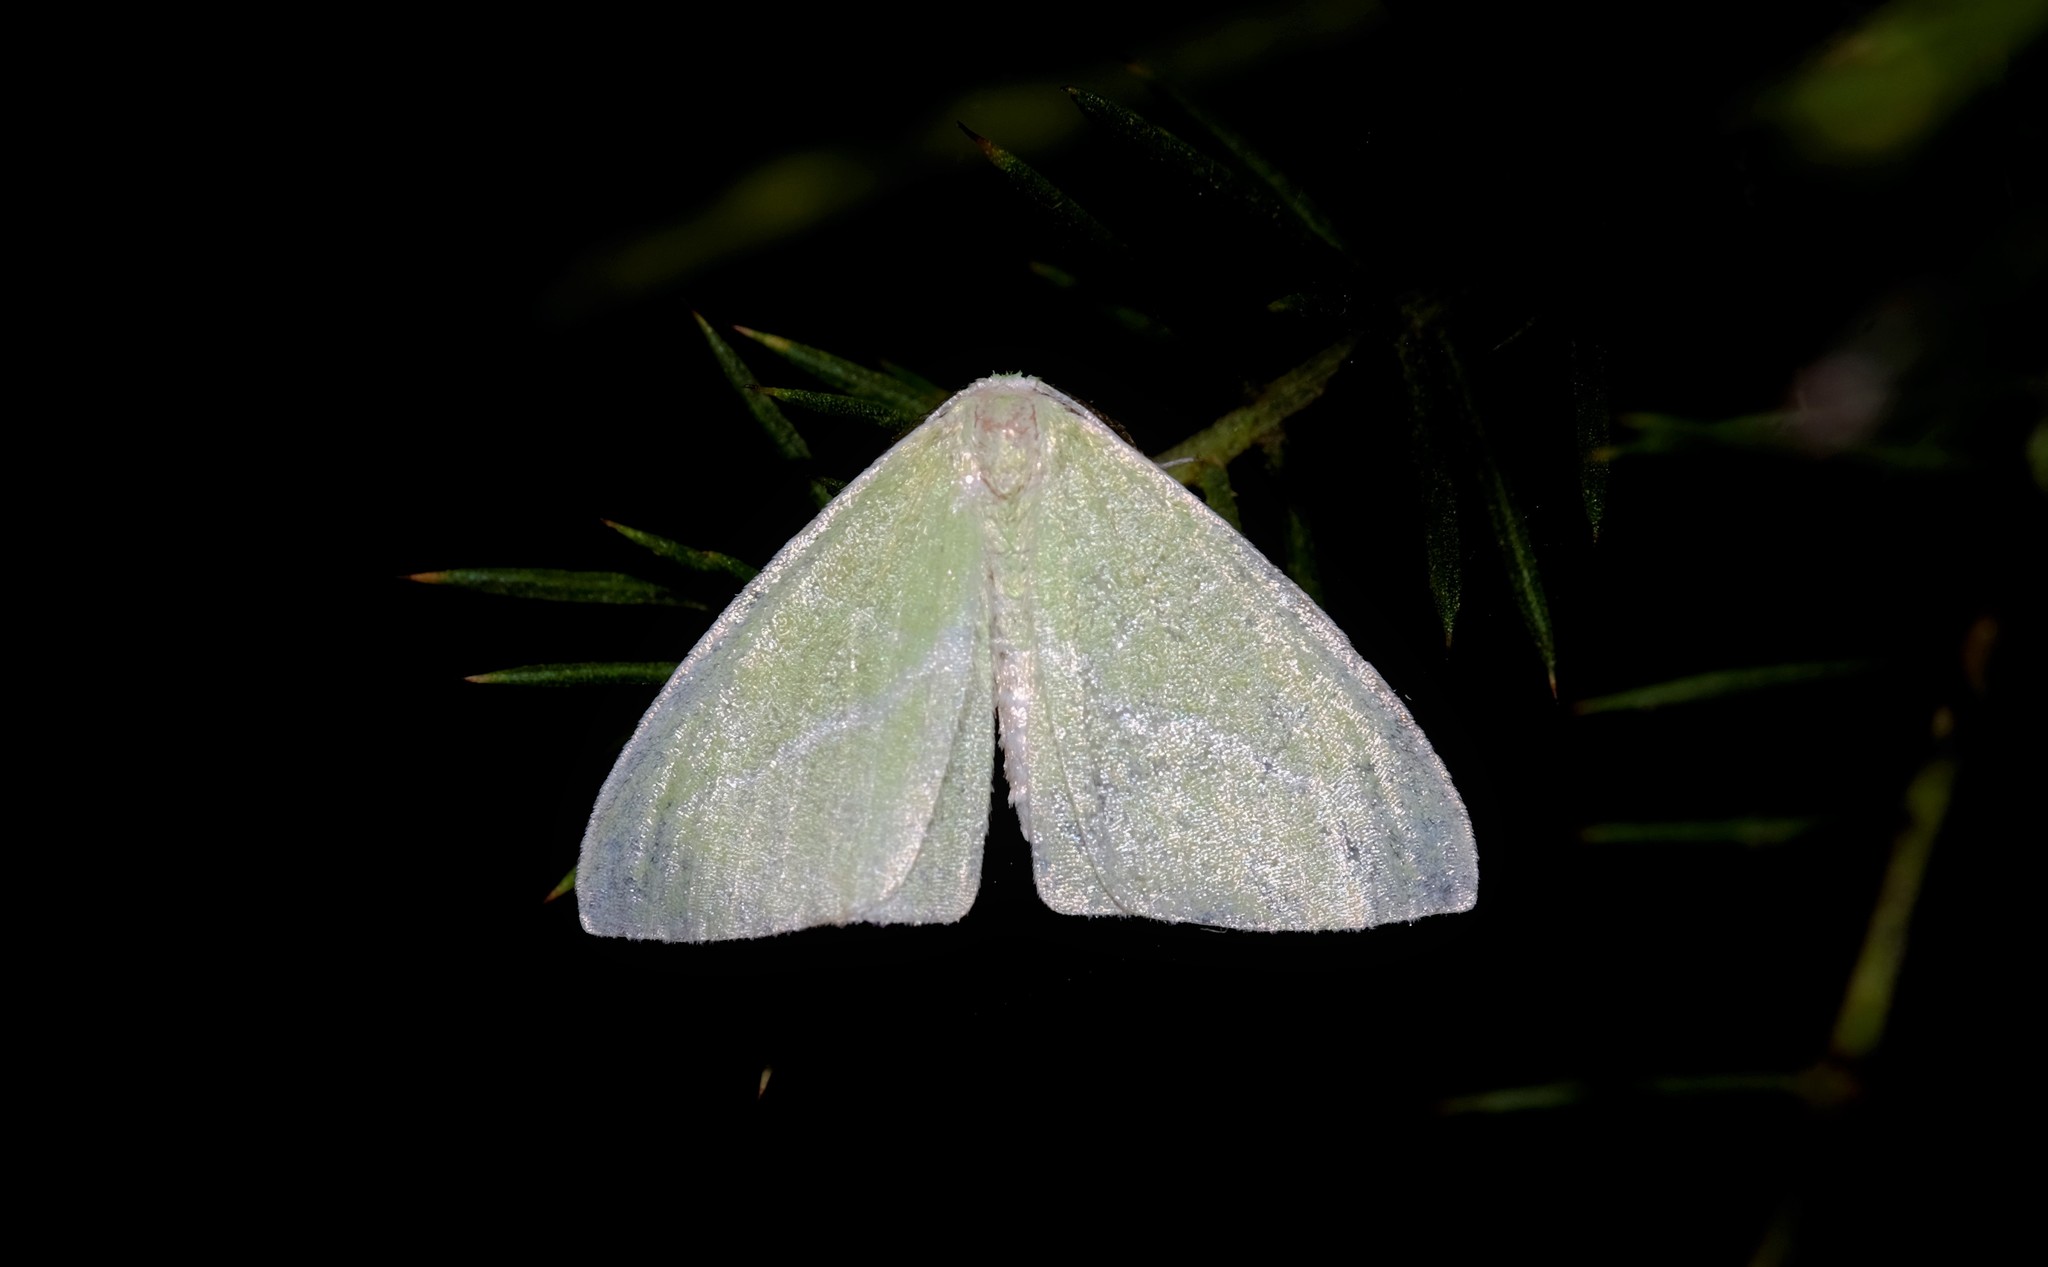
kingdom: Animalia
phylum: Arthropoda
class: Insecta
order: Lepidoptera
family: Geometridae
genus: Iulops
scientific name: Iulops argocrana
